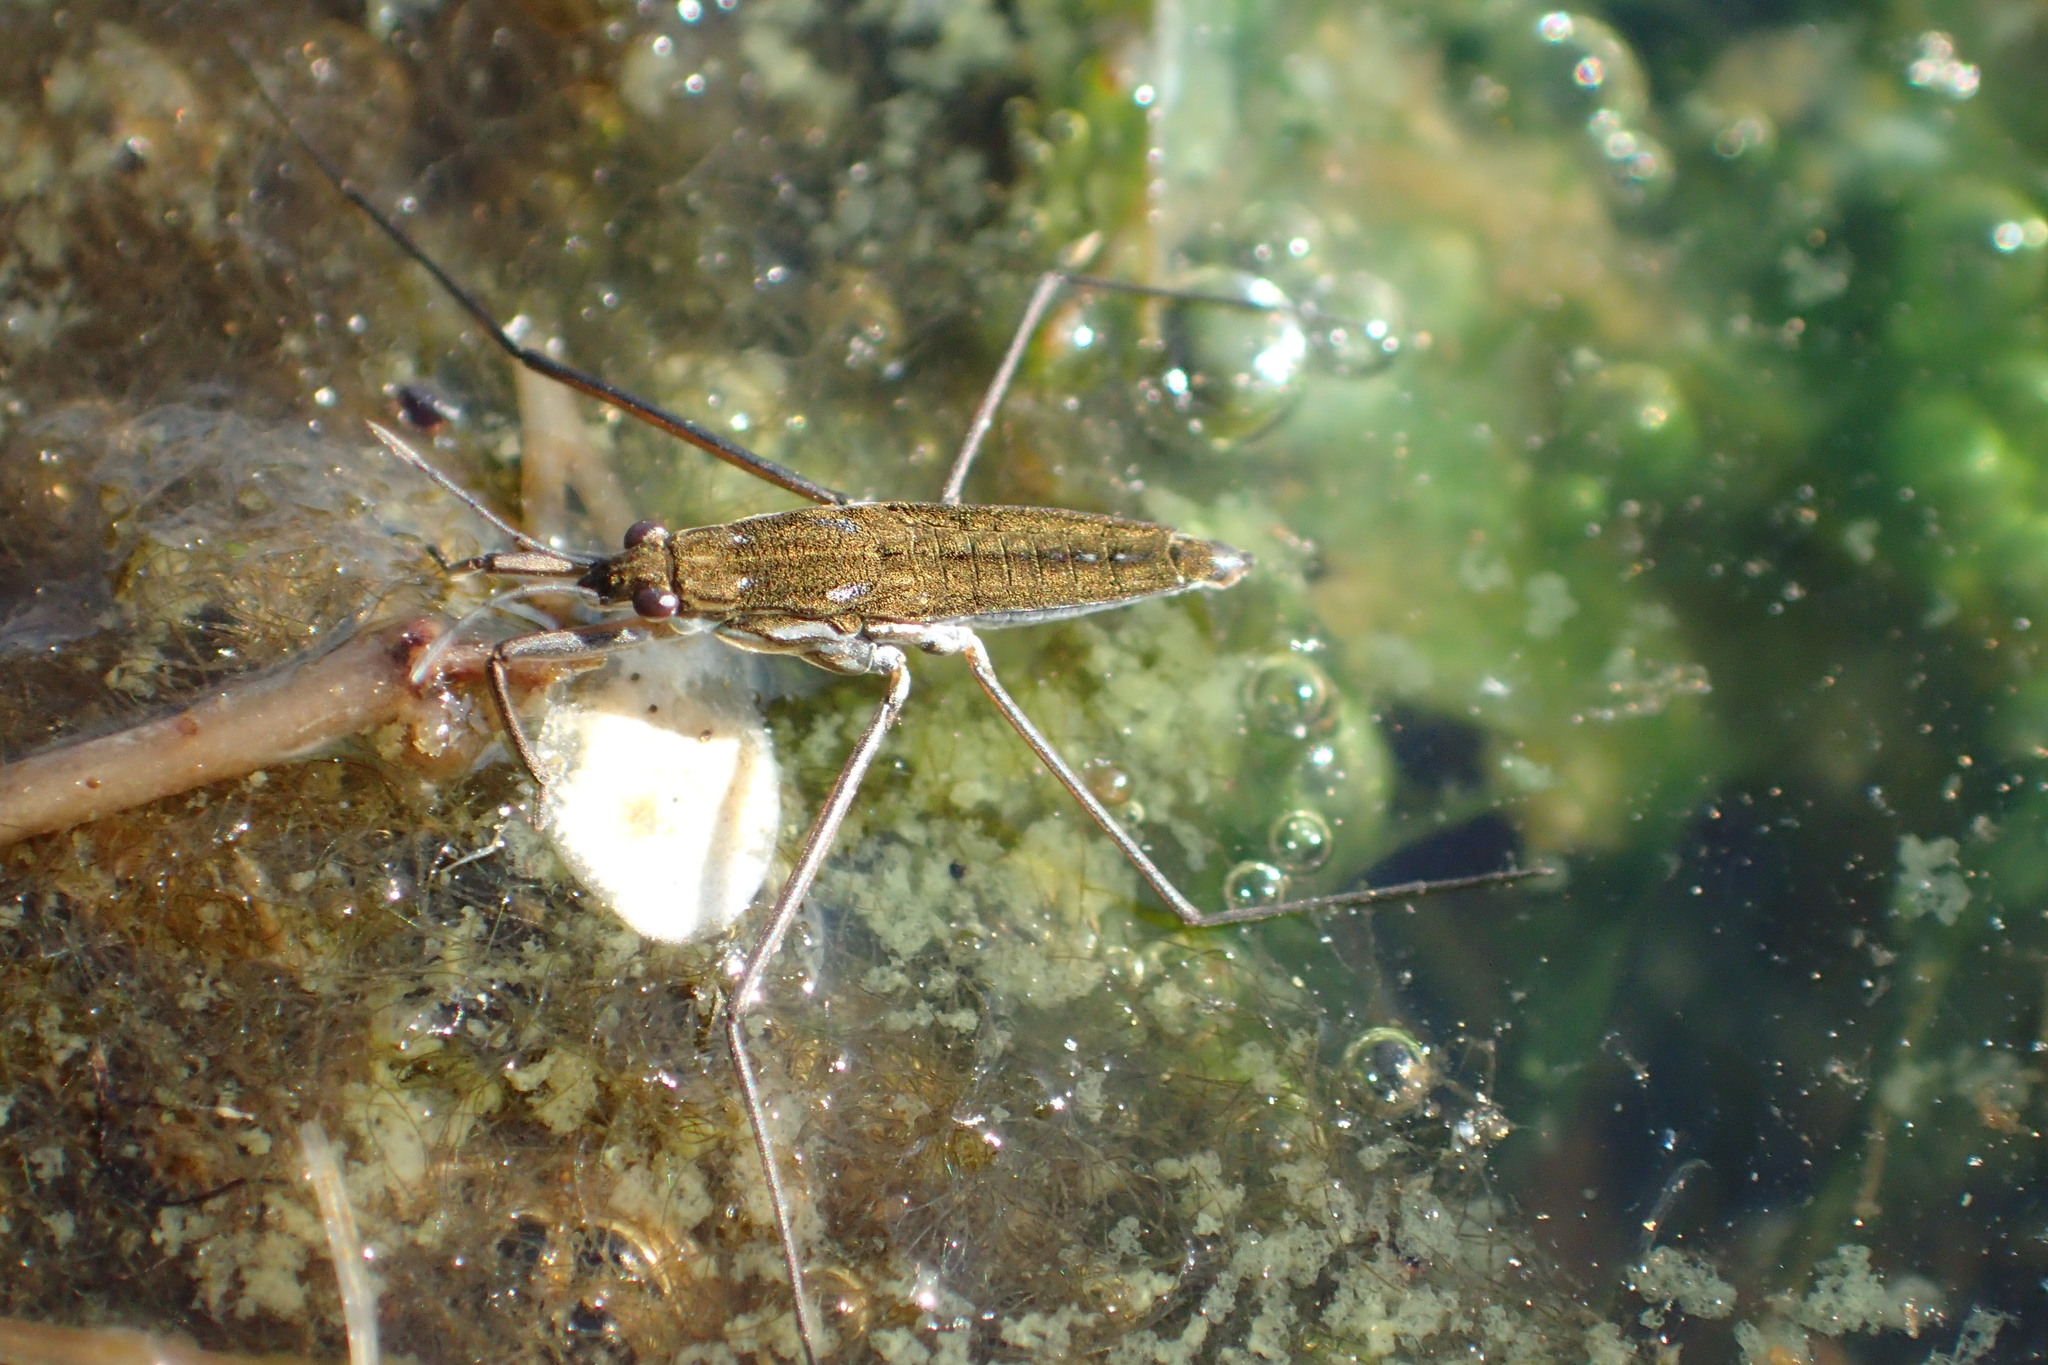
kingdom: Animalia
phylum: Arthropoda
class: Insecta
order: Hemiptera
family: Gerridae
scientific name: Gerridae
